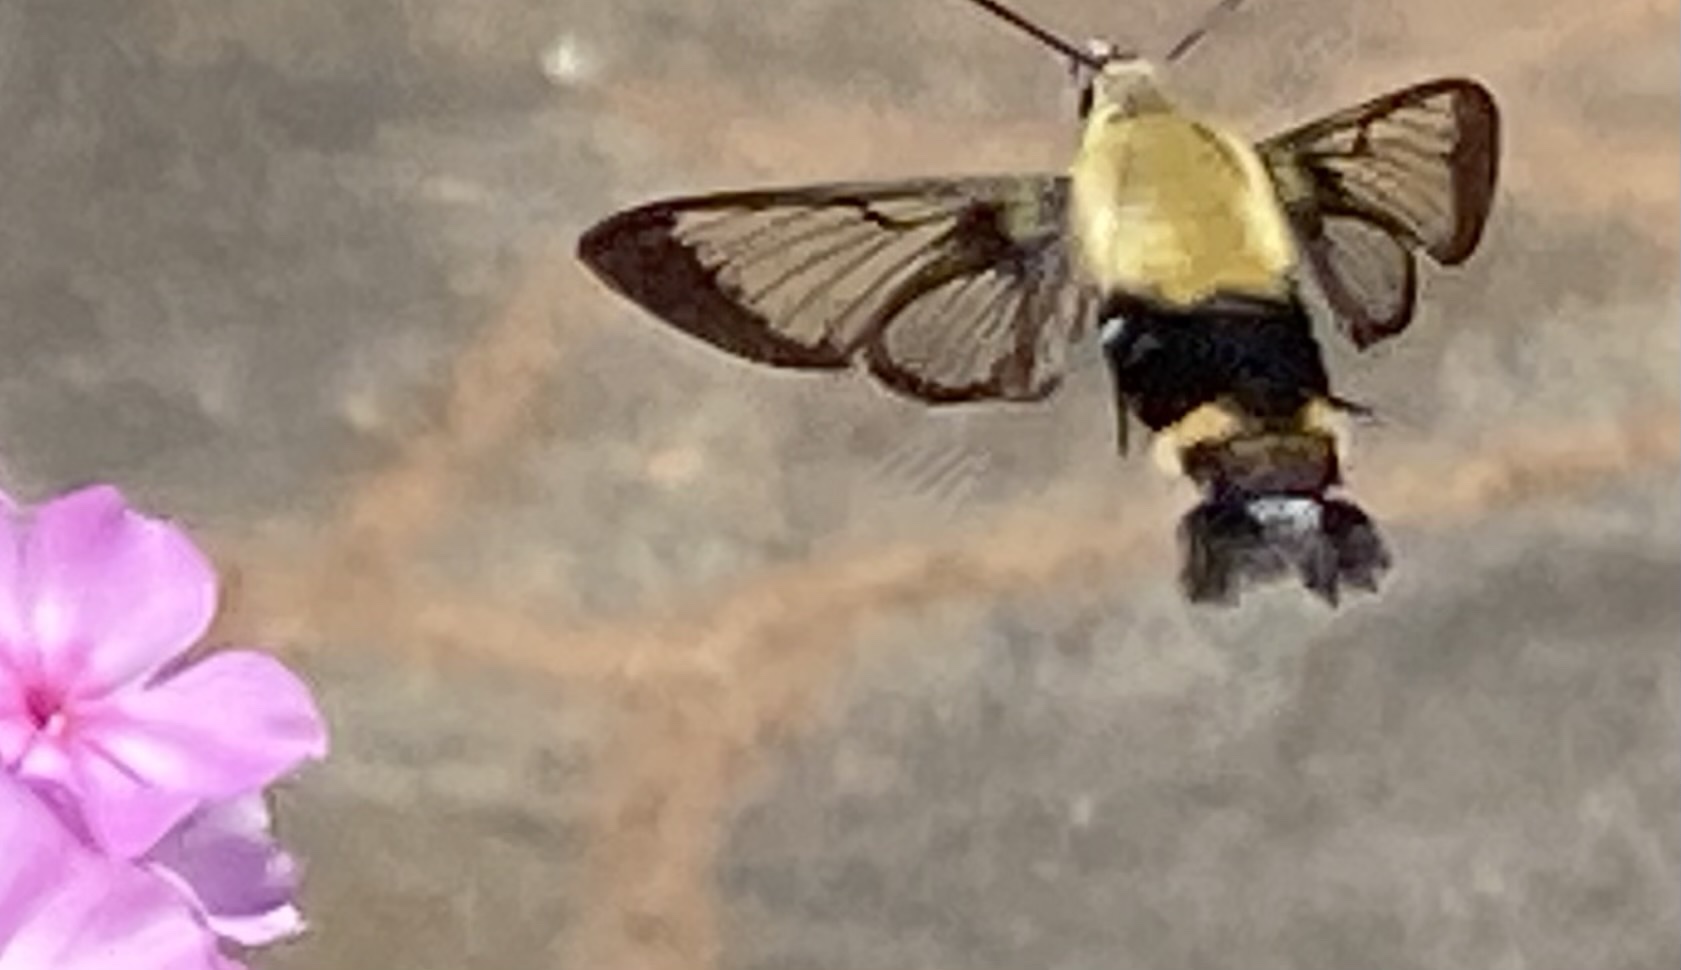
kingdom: Animalia
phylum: Arthropoda
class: Insecta
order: Lepidoptera
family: Sphingidae
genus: Hemaris
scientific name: Hemaris diffinis
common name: Bumblebee moth
